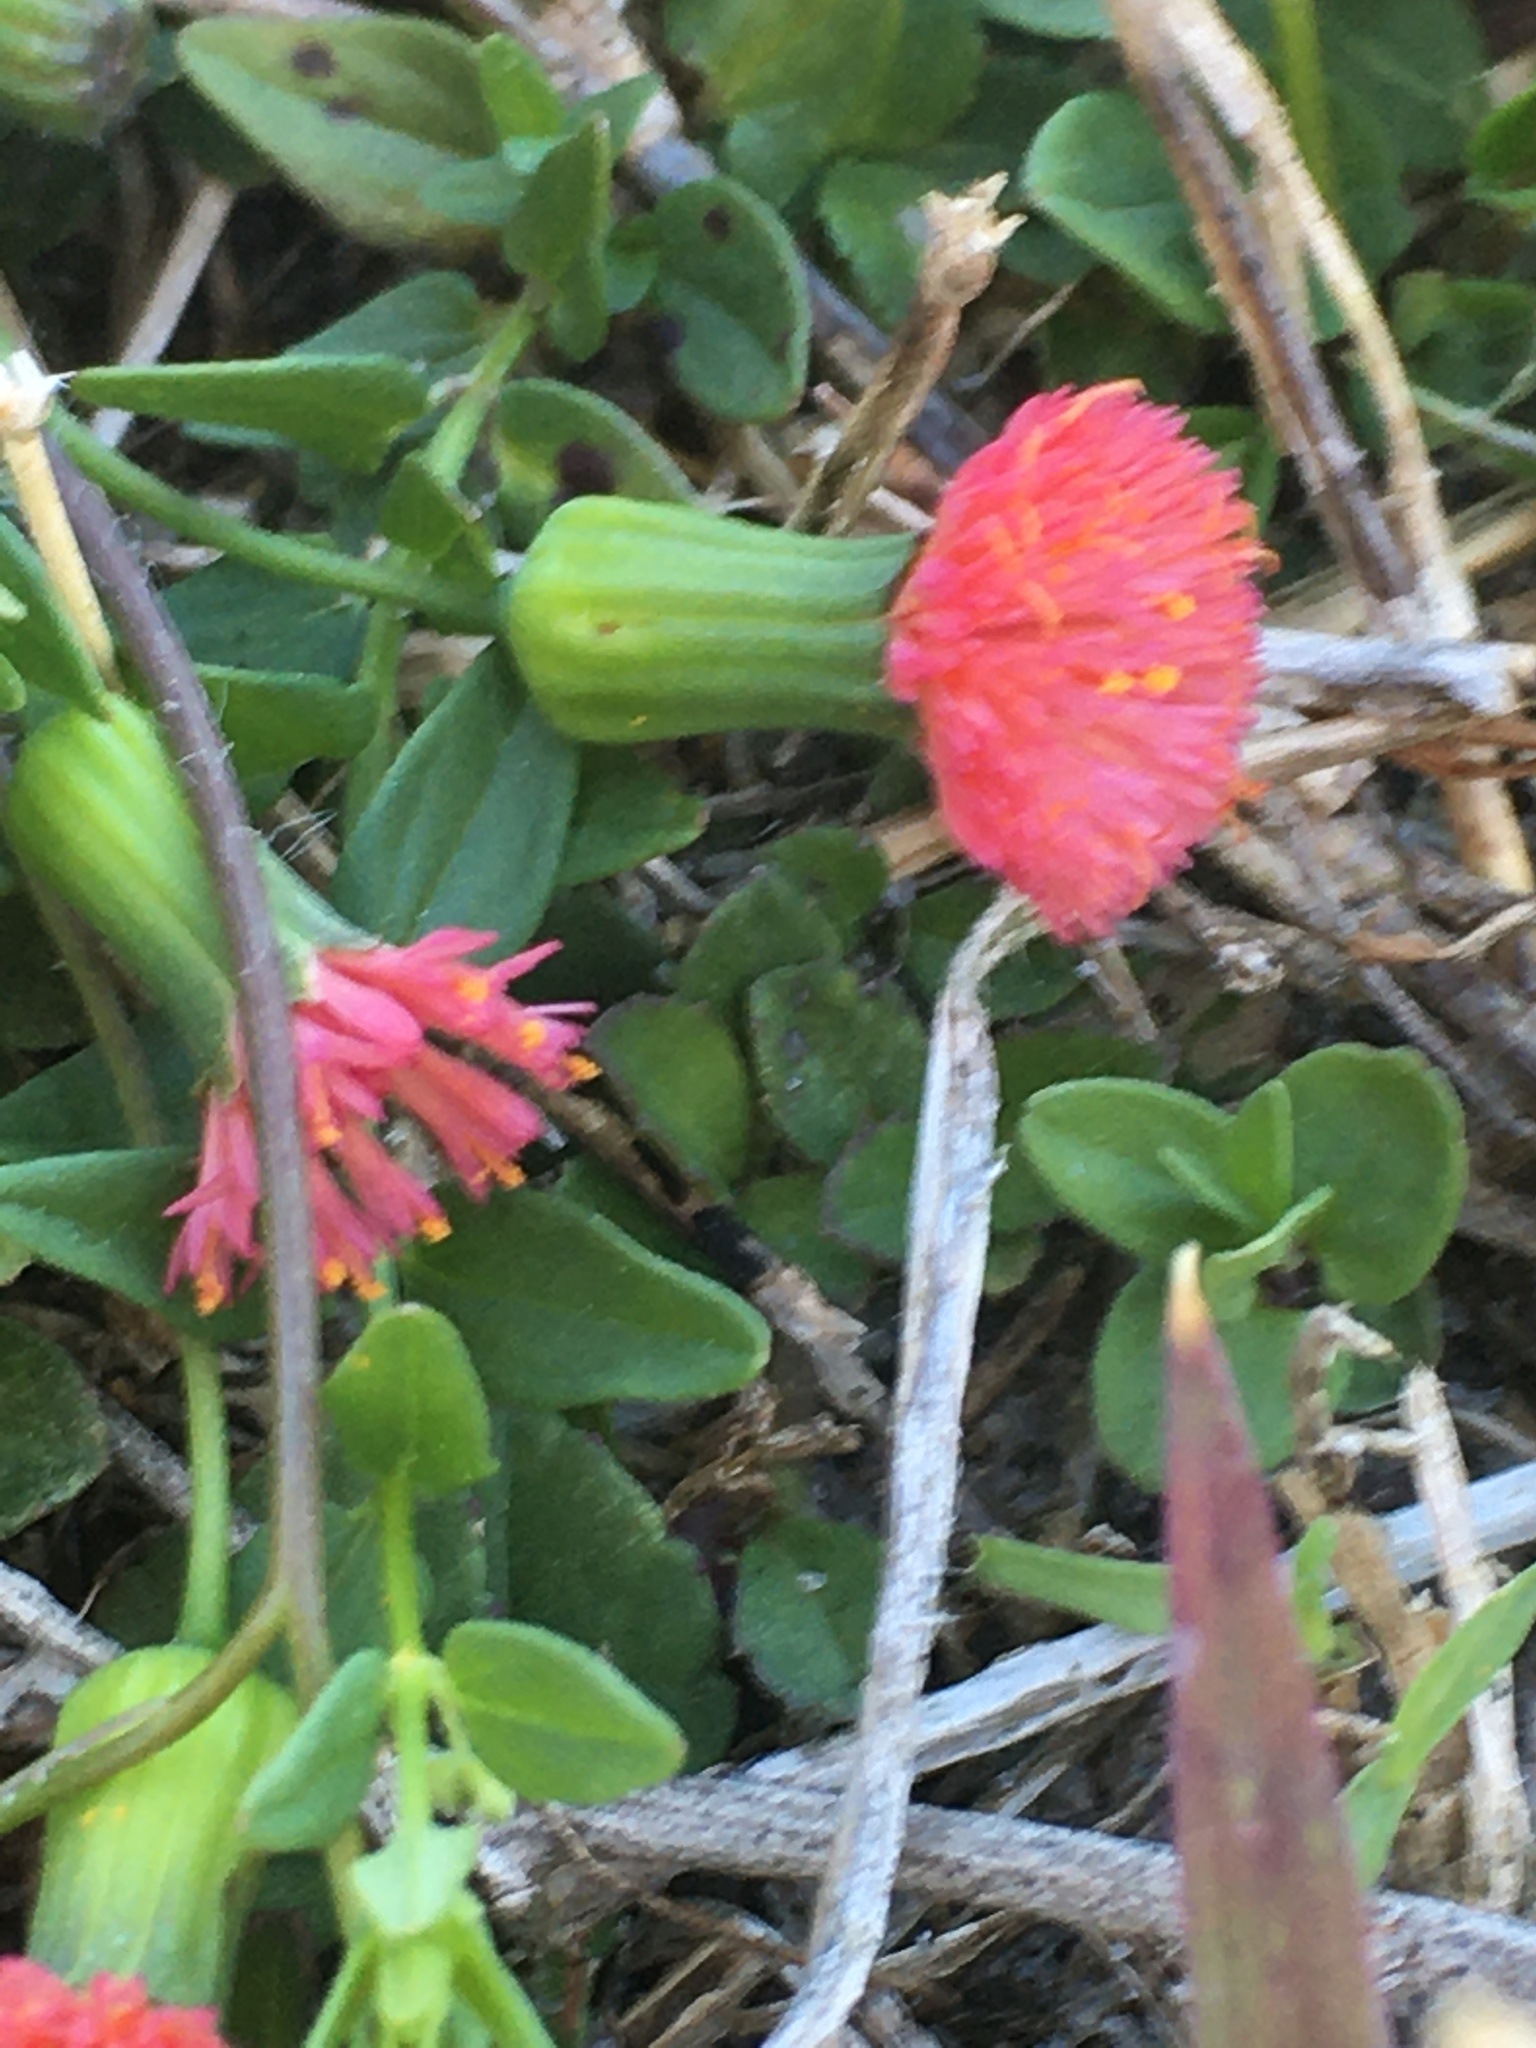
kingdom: Plantae
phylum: Tracheophyta
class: Magnoliopsida
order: Asterales
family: Asteraceae
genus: Emilia
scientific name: Emilia fosbergii
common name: Florida tasselflower
